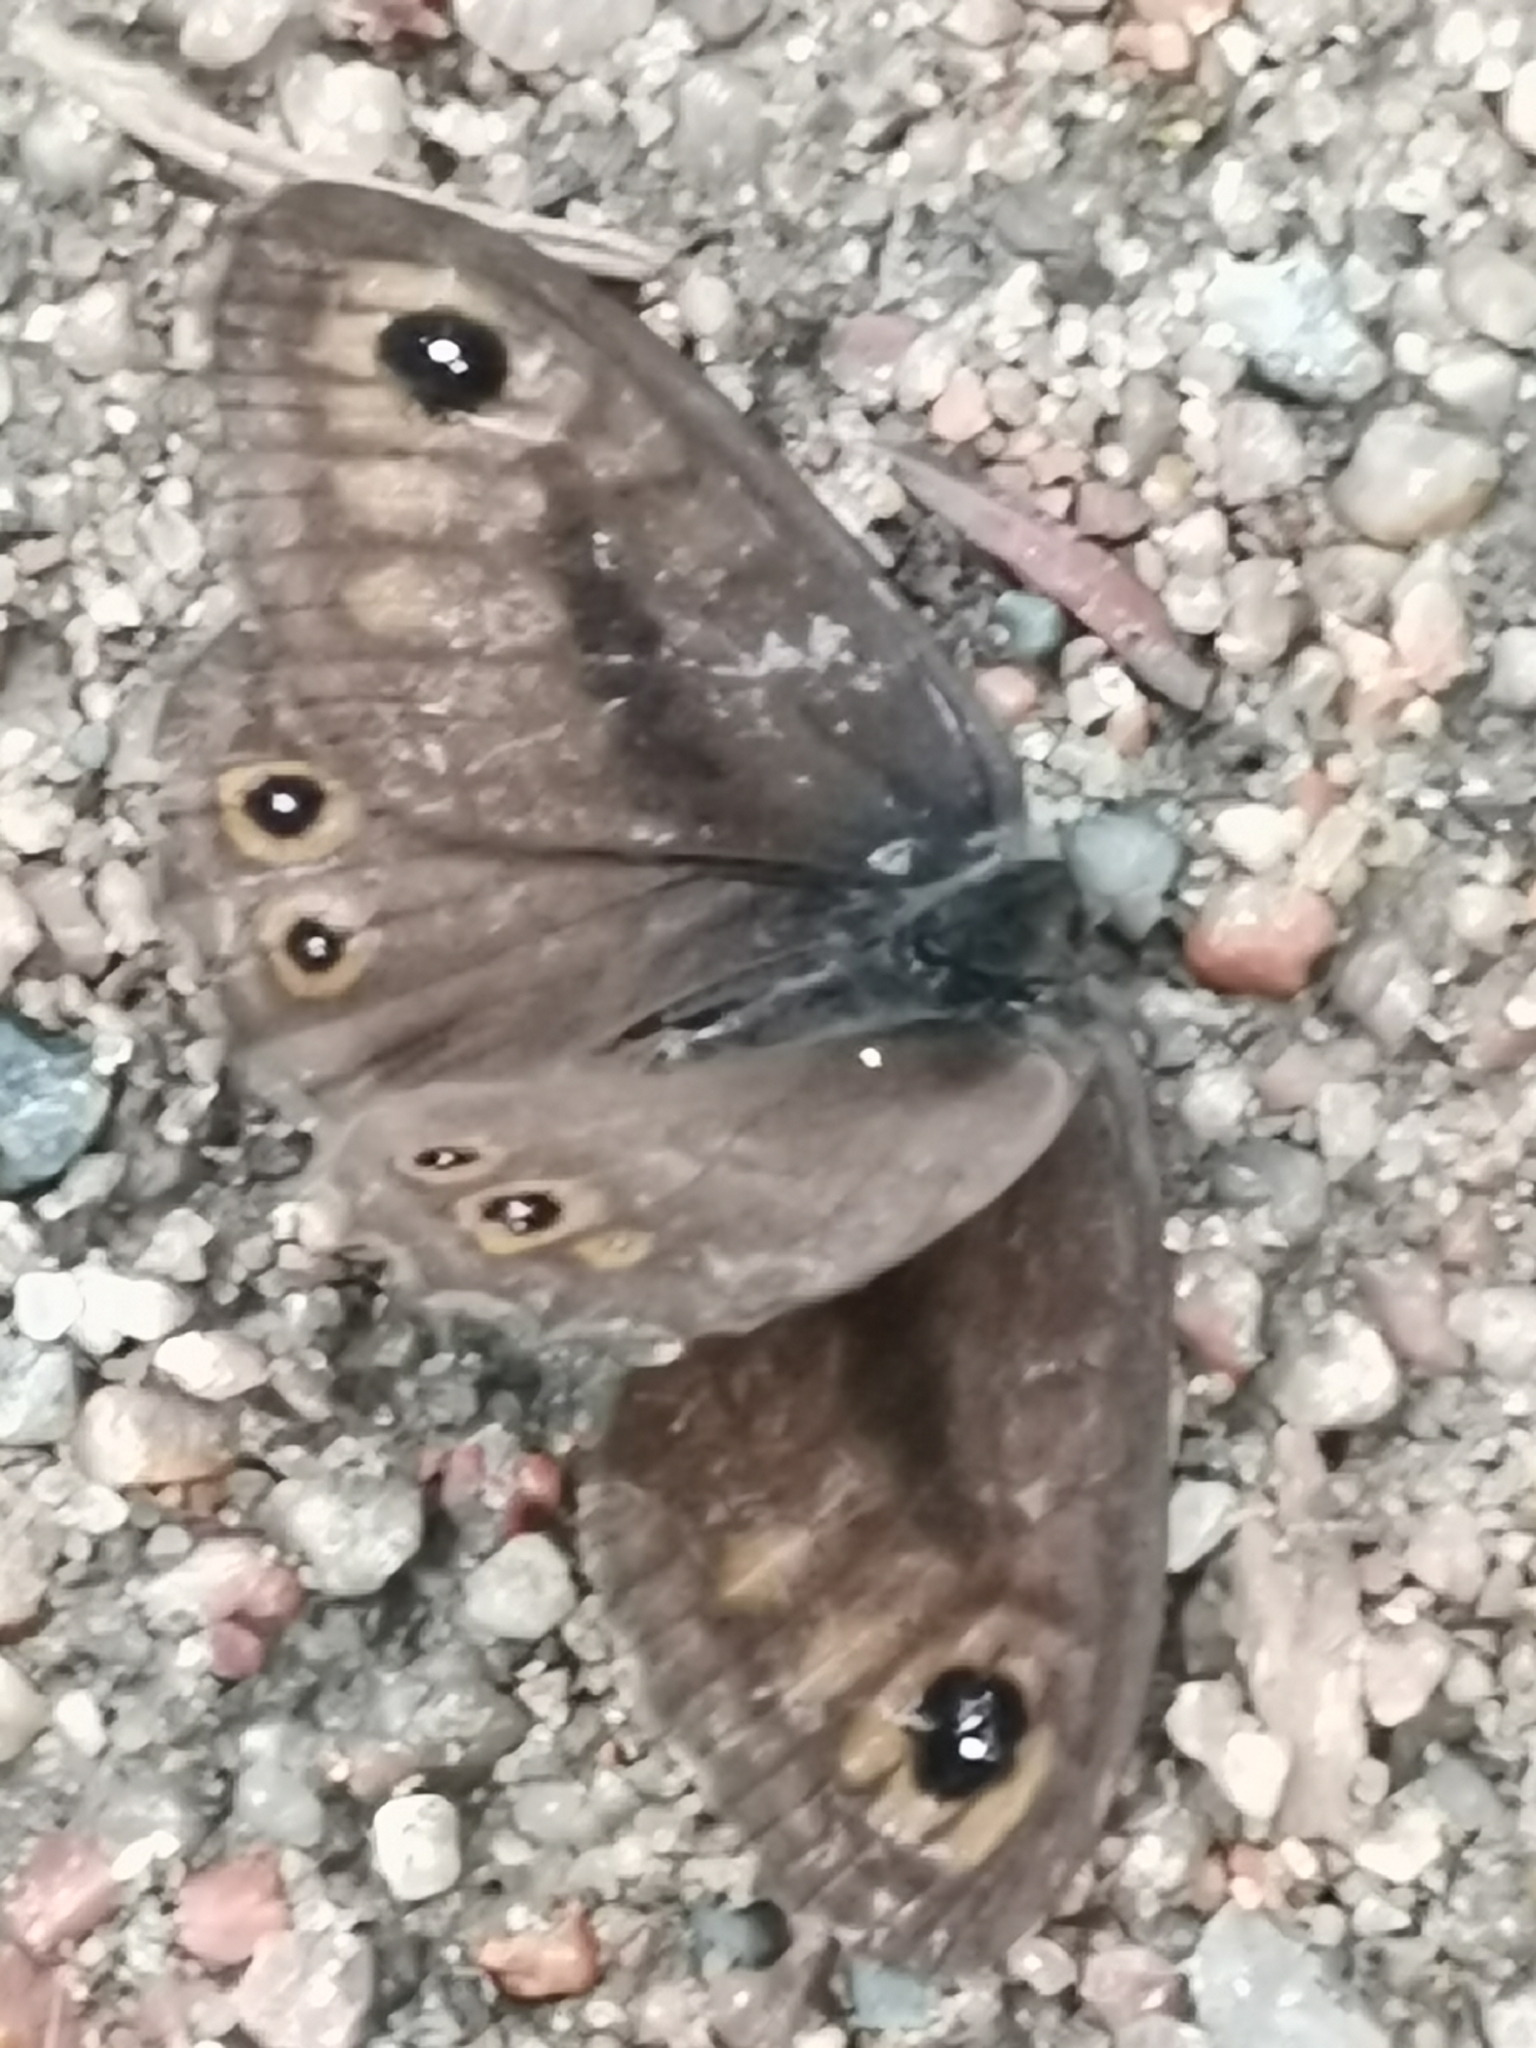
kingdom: Animalia
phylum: Arthropoda
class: Insecta
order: Lepidoptera
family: Nymphalidae
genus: Pararge
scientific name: Pararge petropolitana
